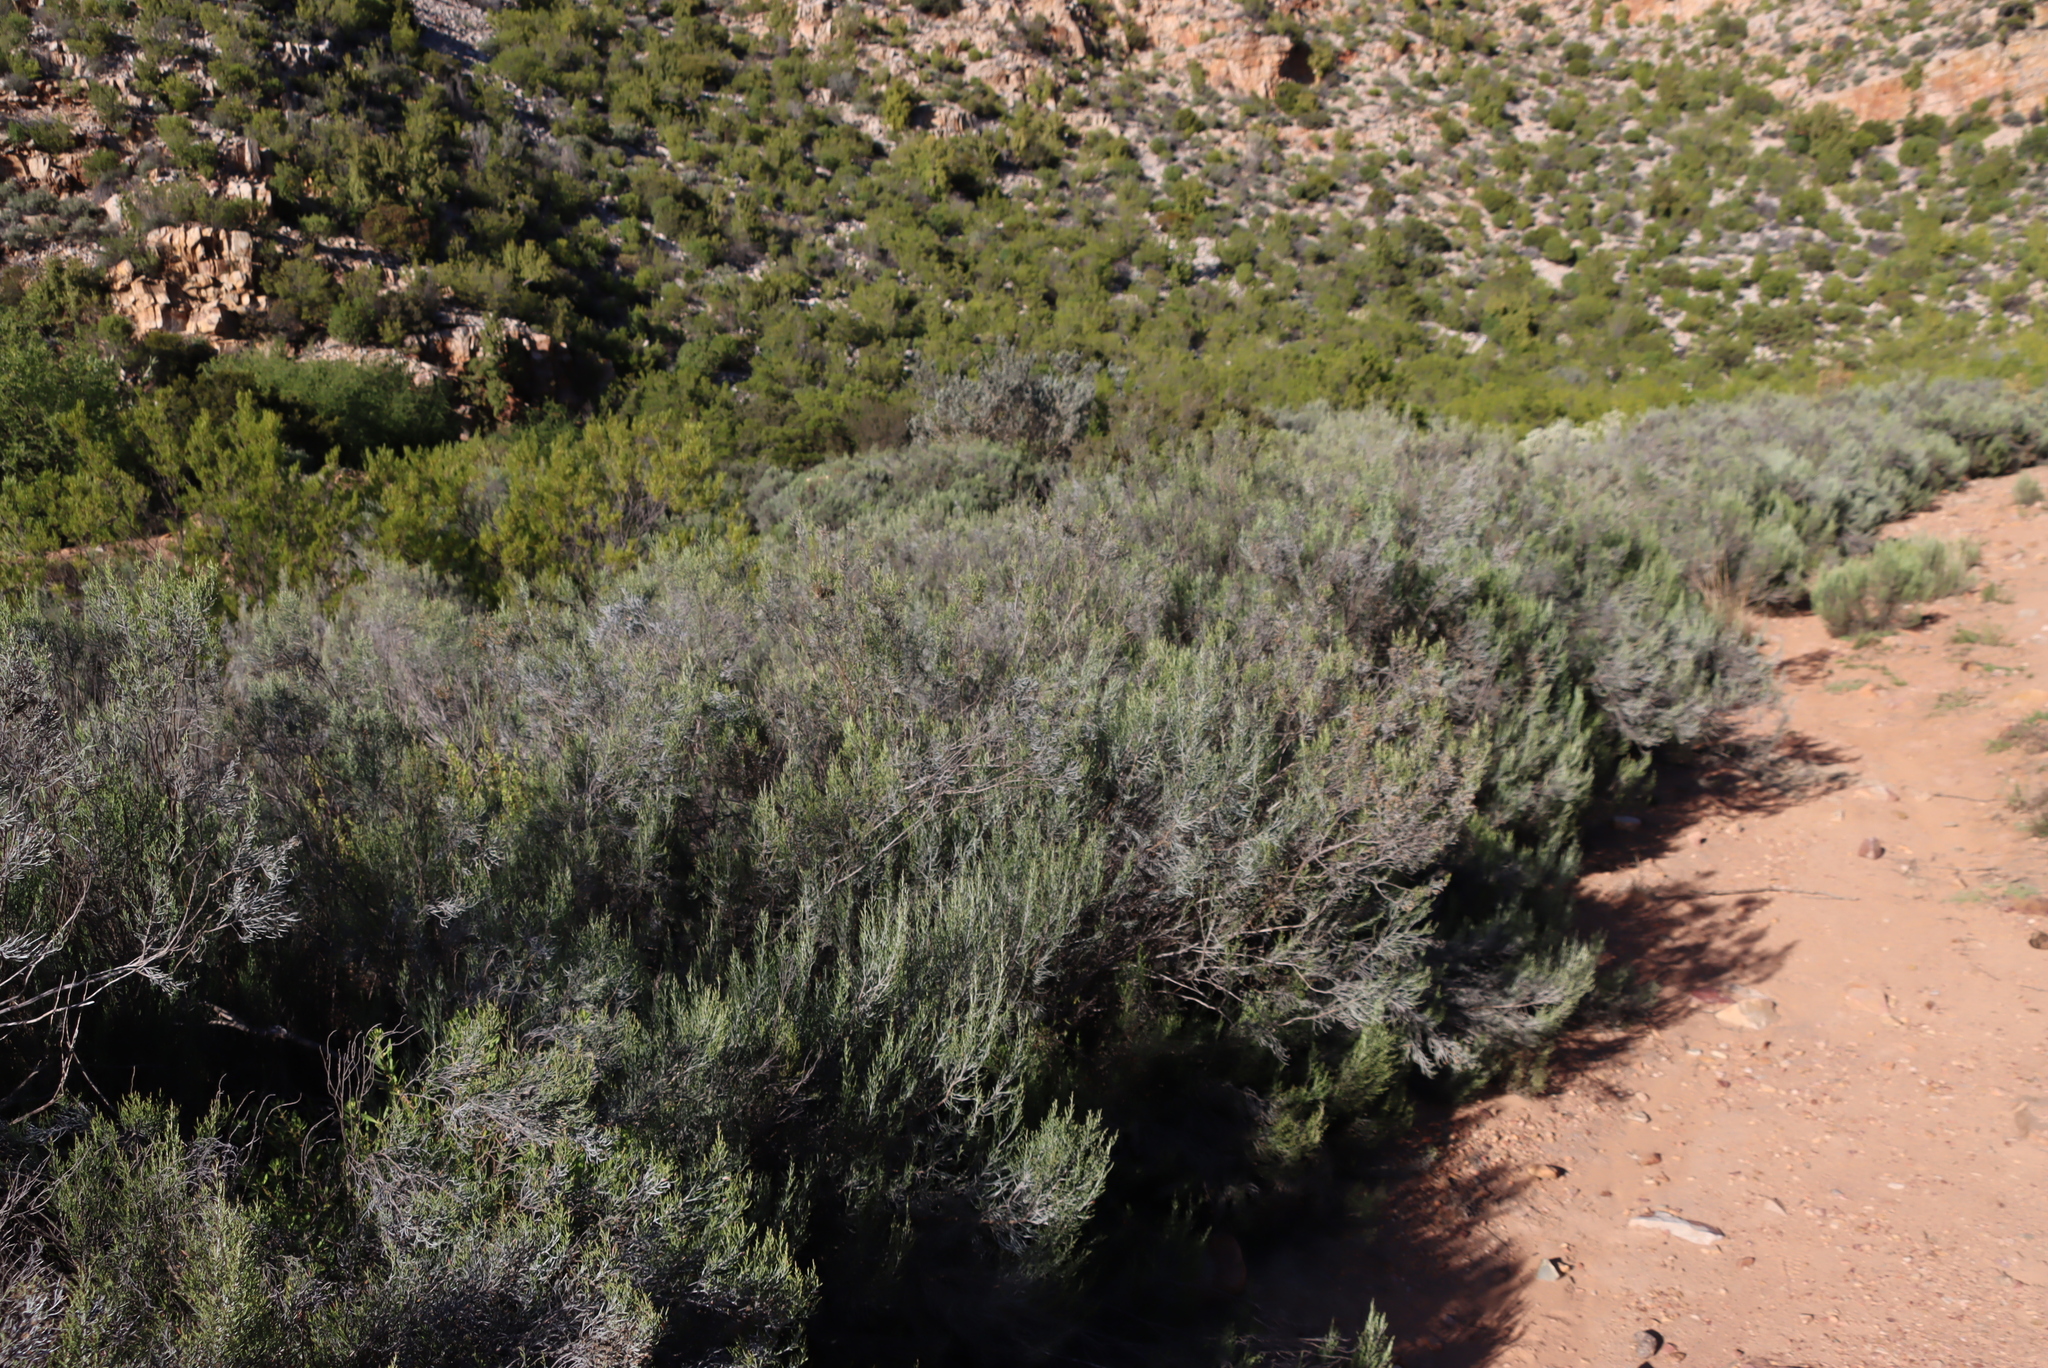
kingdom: Plantae
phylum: Tracheophyta
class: Magnoliopsida
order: Asterales
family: Asteraceae
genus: Dicerothamnus
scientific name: Dicerothamnus rhinocerotis
